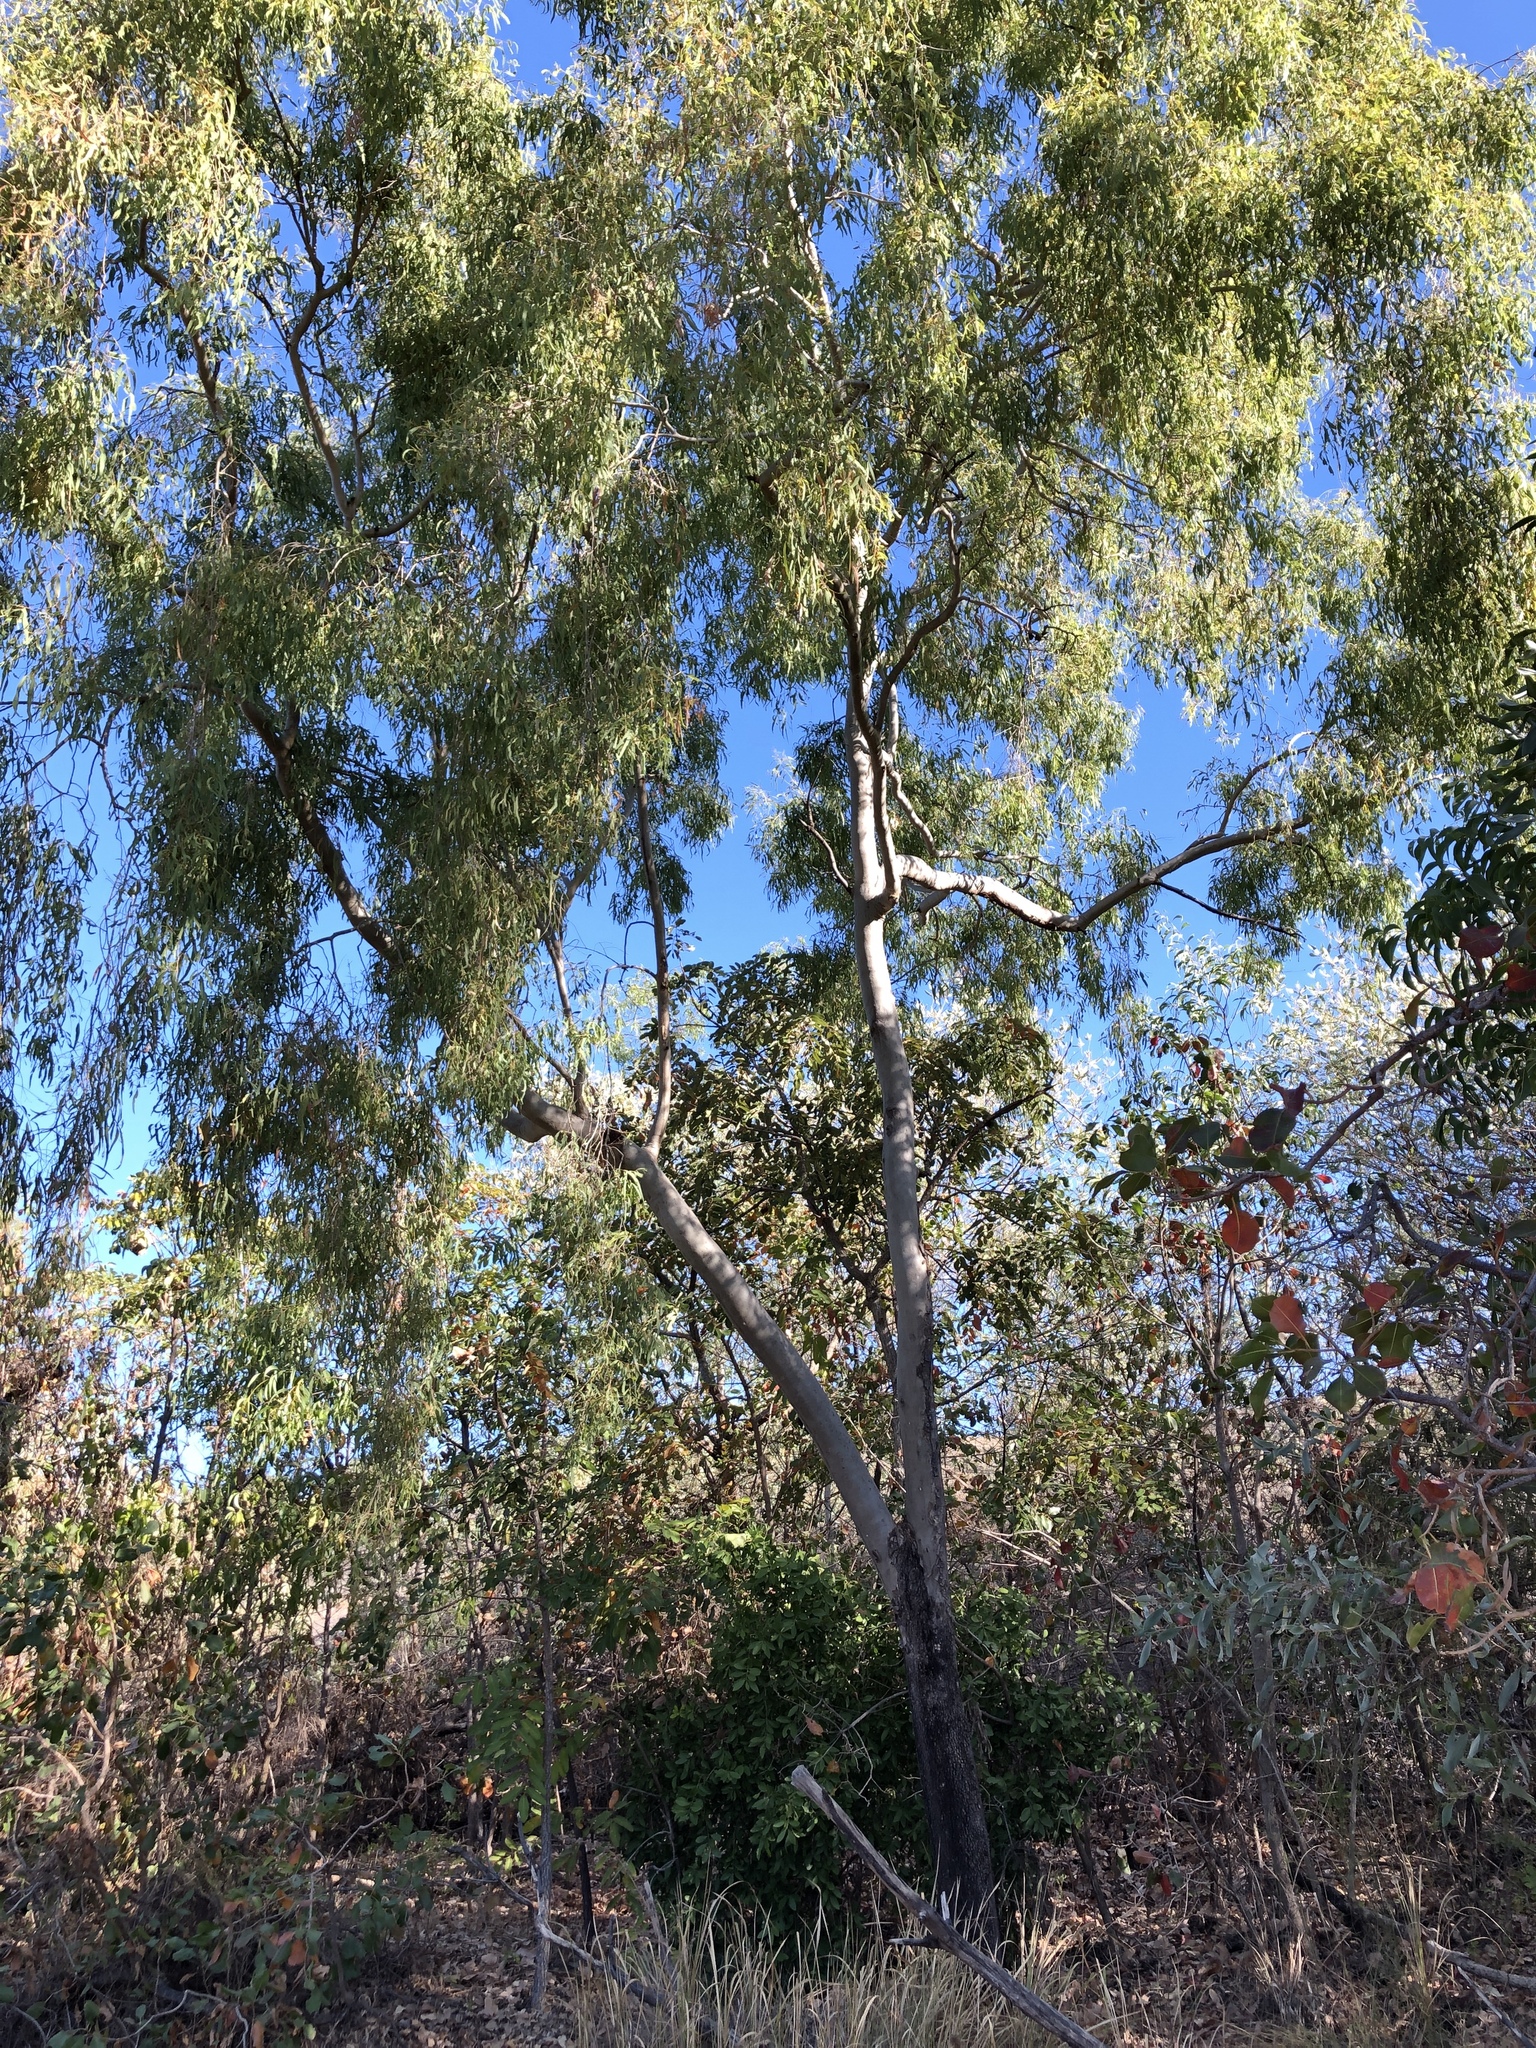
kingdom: Plantae
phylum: Tracheophyta
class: Magnoliopsida
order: Myrtales
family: Myrtaceae
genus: Corymbia
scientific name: Corymbia tessellaris
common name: Carbeen
